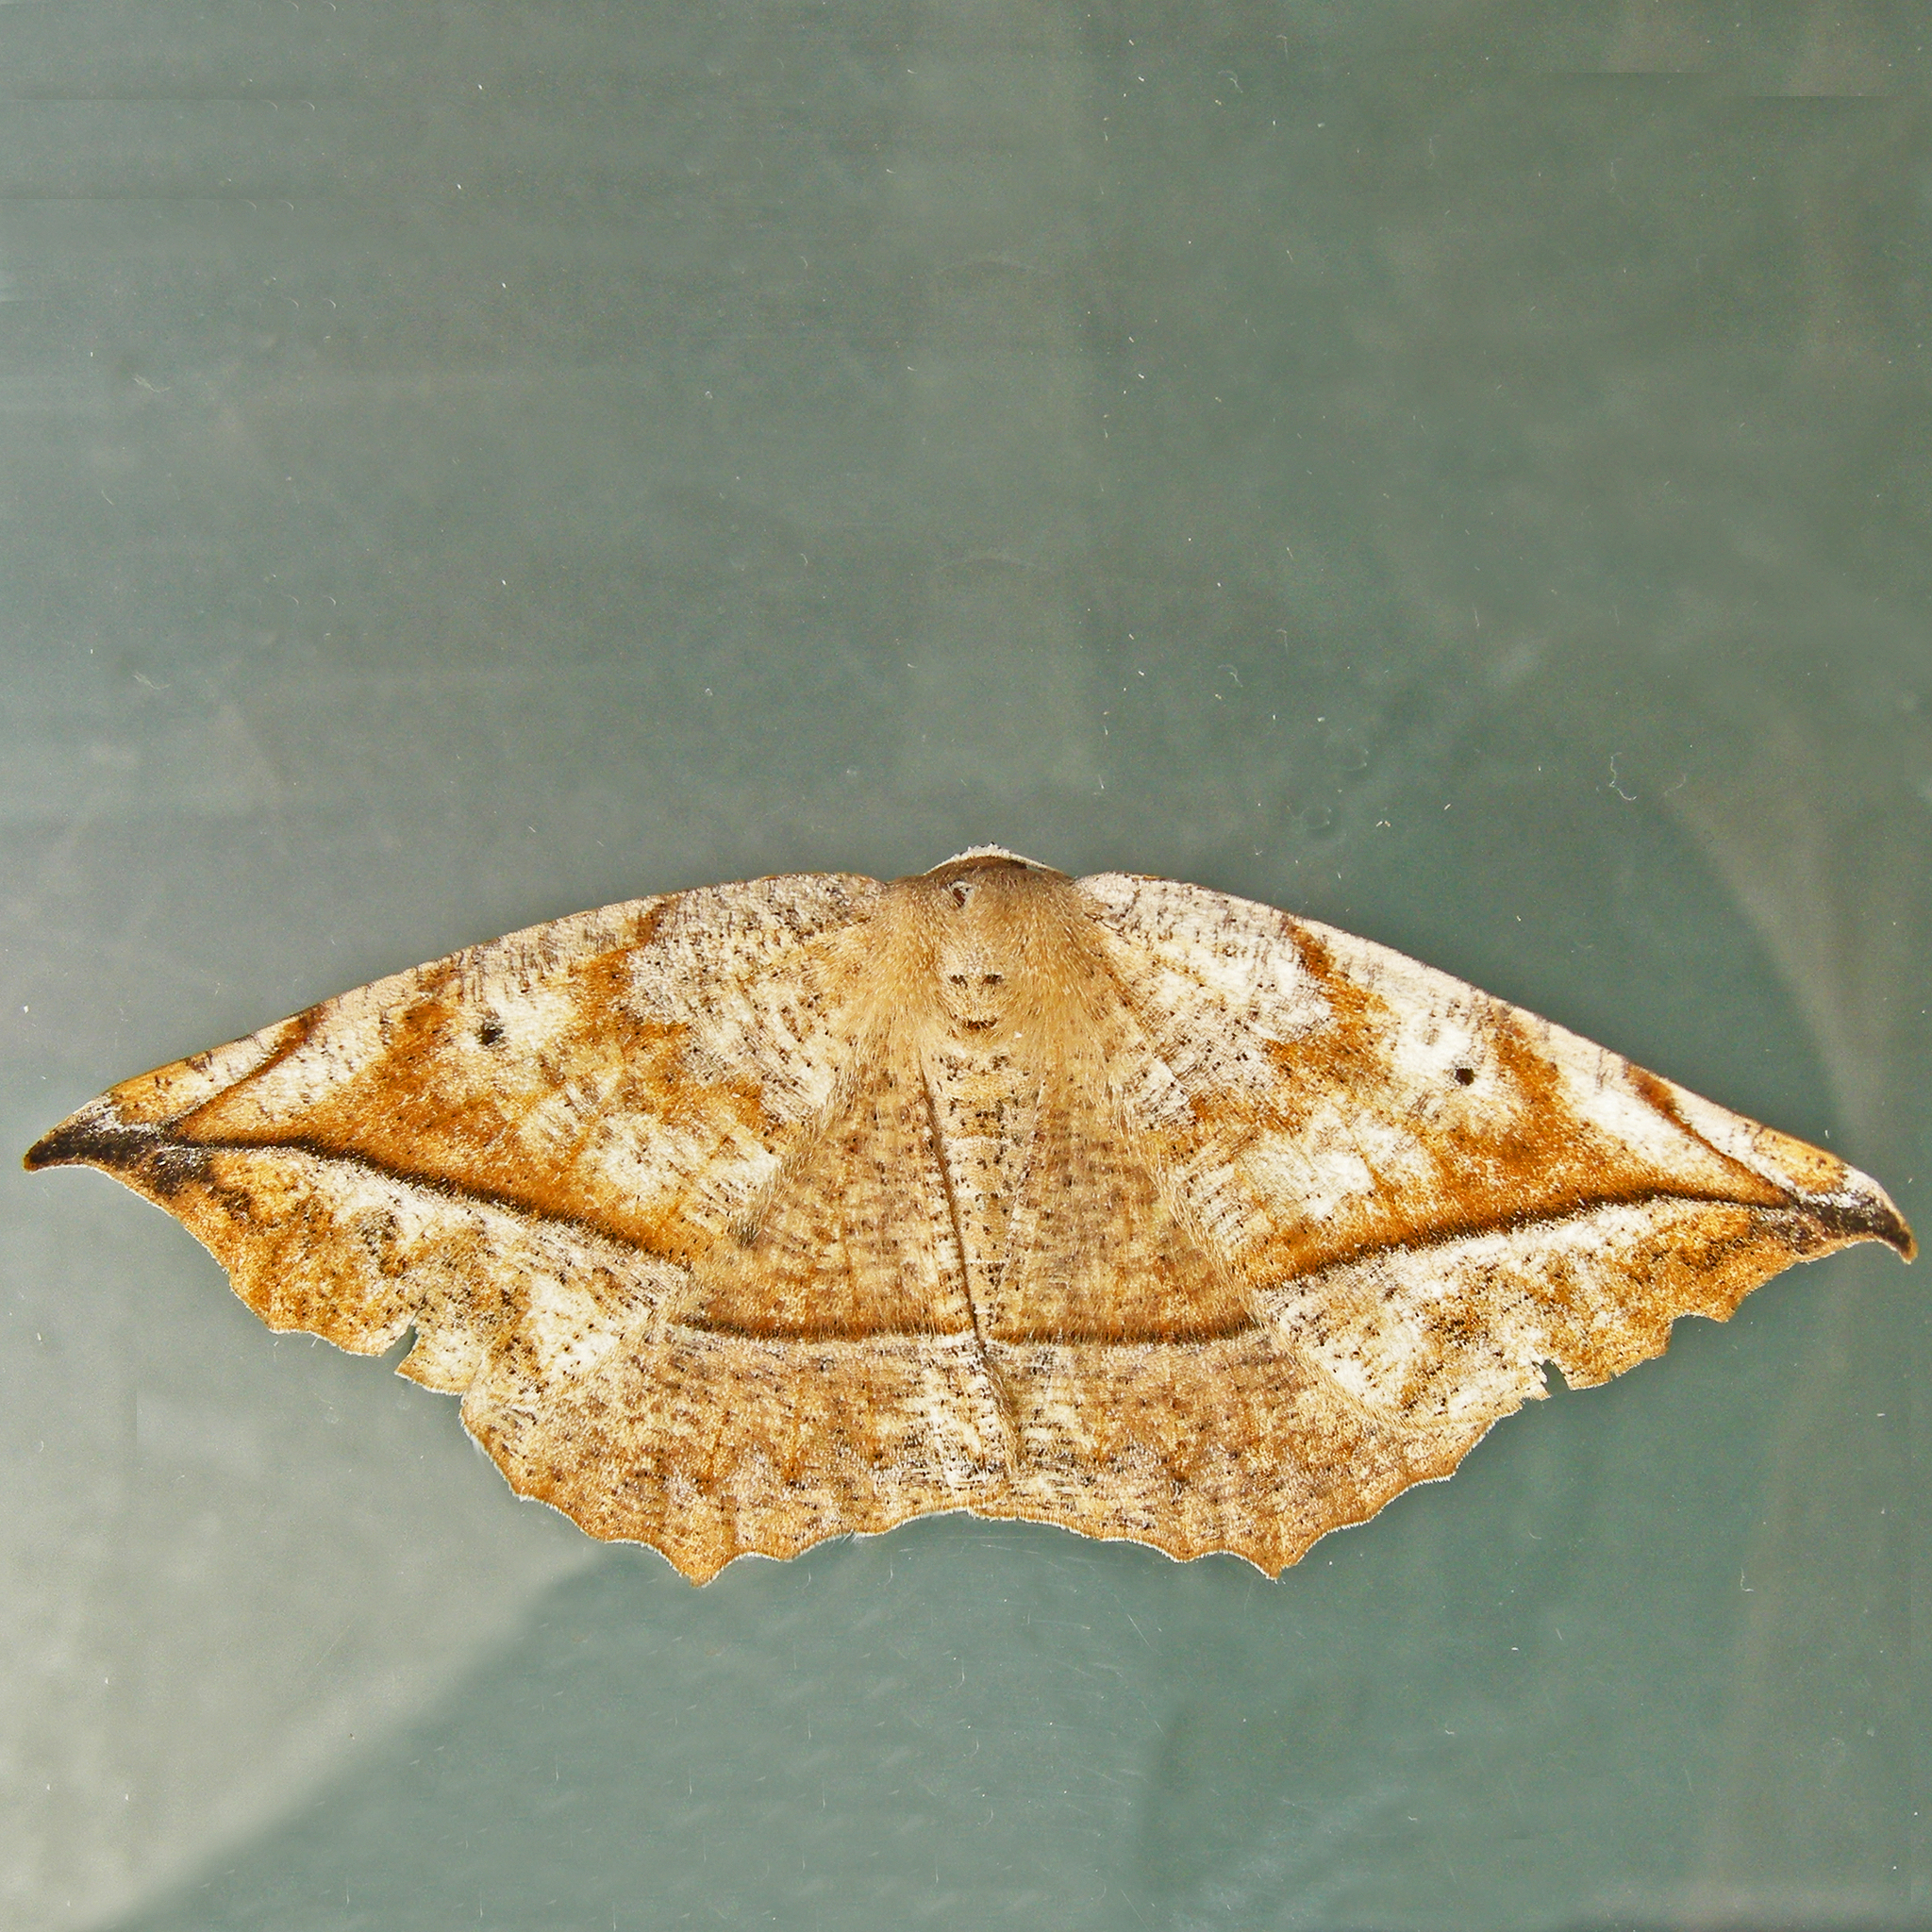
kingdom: Animalia
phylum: Arthropoda
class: Insecta
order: Lepidoptera
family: Geometridae
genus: Eutrapela
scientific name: Eutrapela clemataria
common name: Curved-toothed geometer
